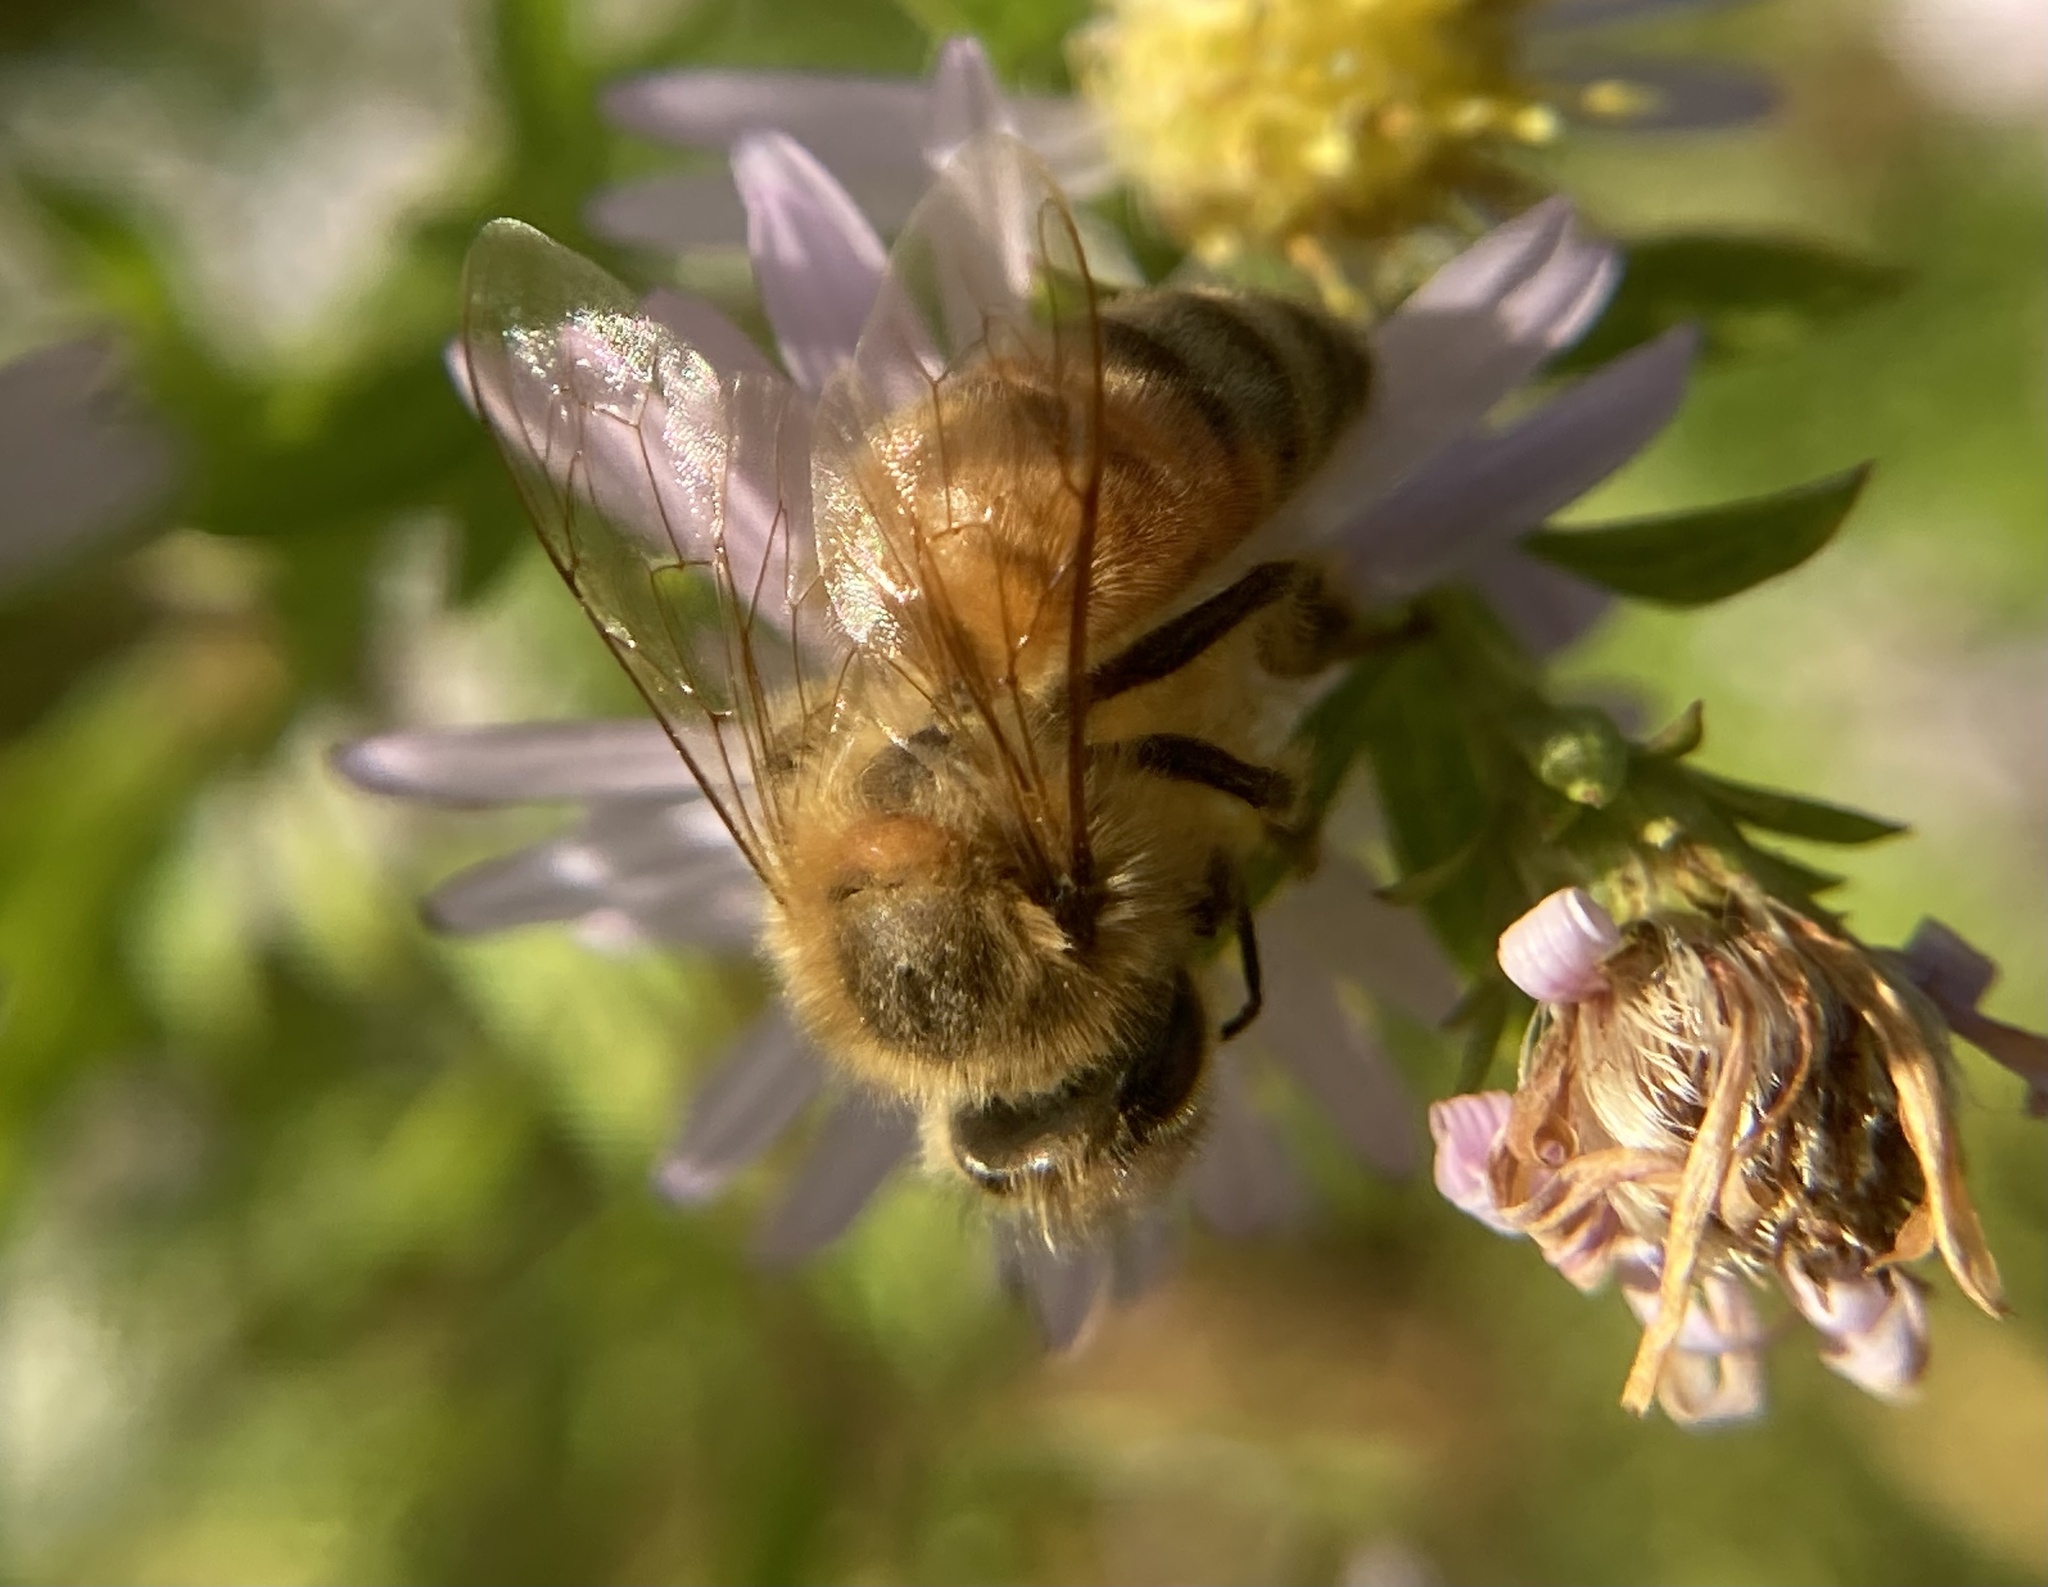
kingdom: Animalia
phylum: Arthropoda
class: Insecta
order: Hymenoptera
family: Apidae
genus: Apis
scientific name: Apis mellifera
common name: Honey bee
